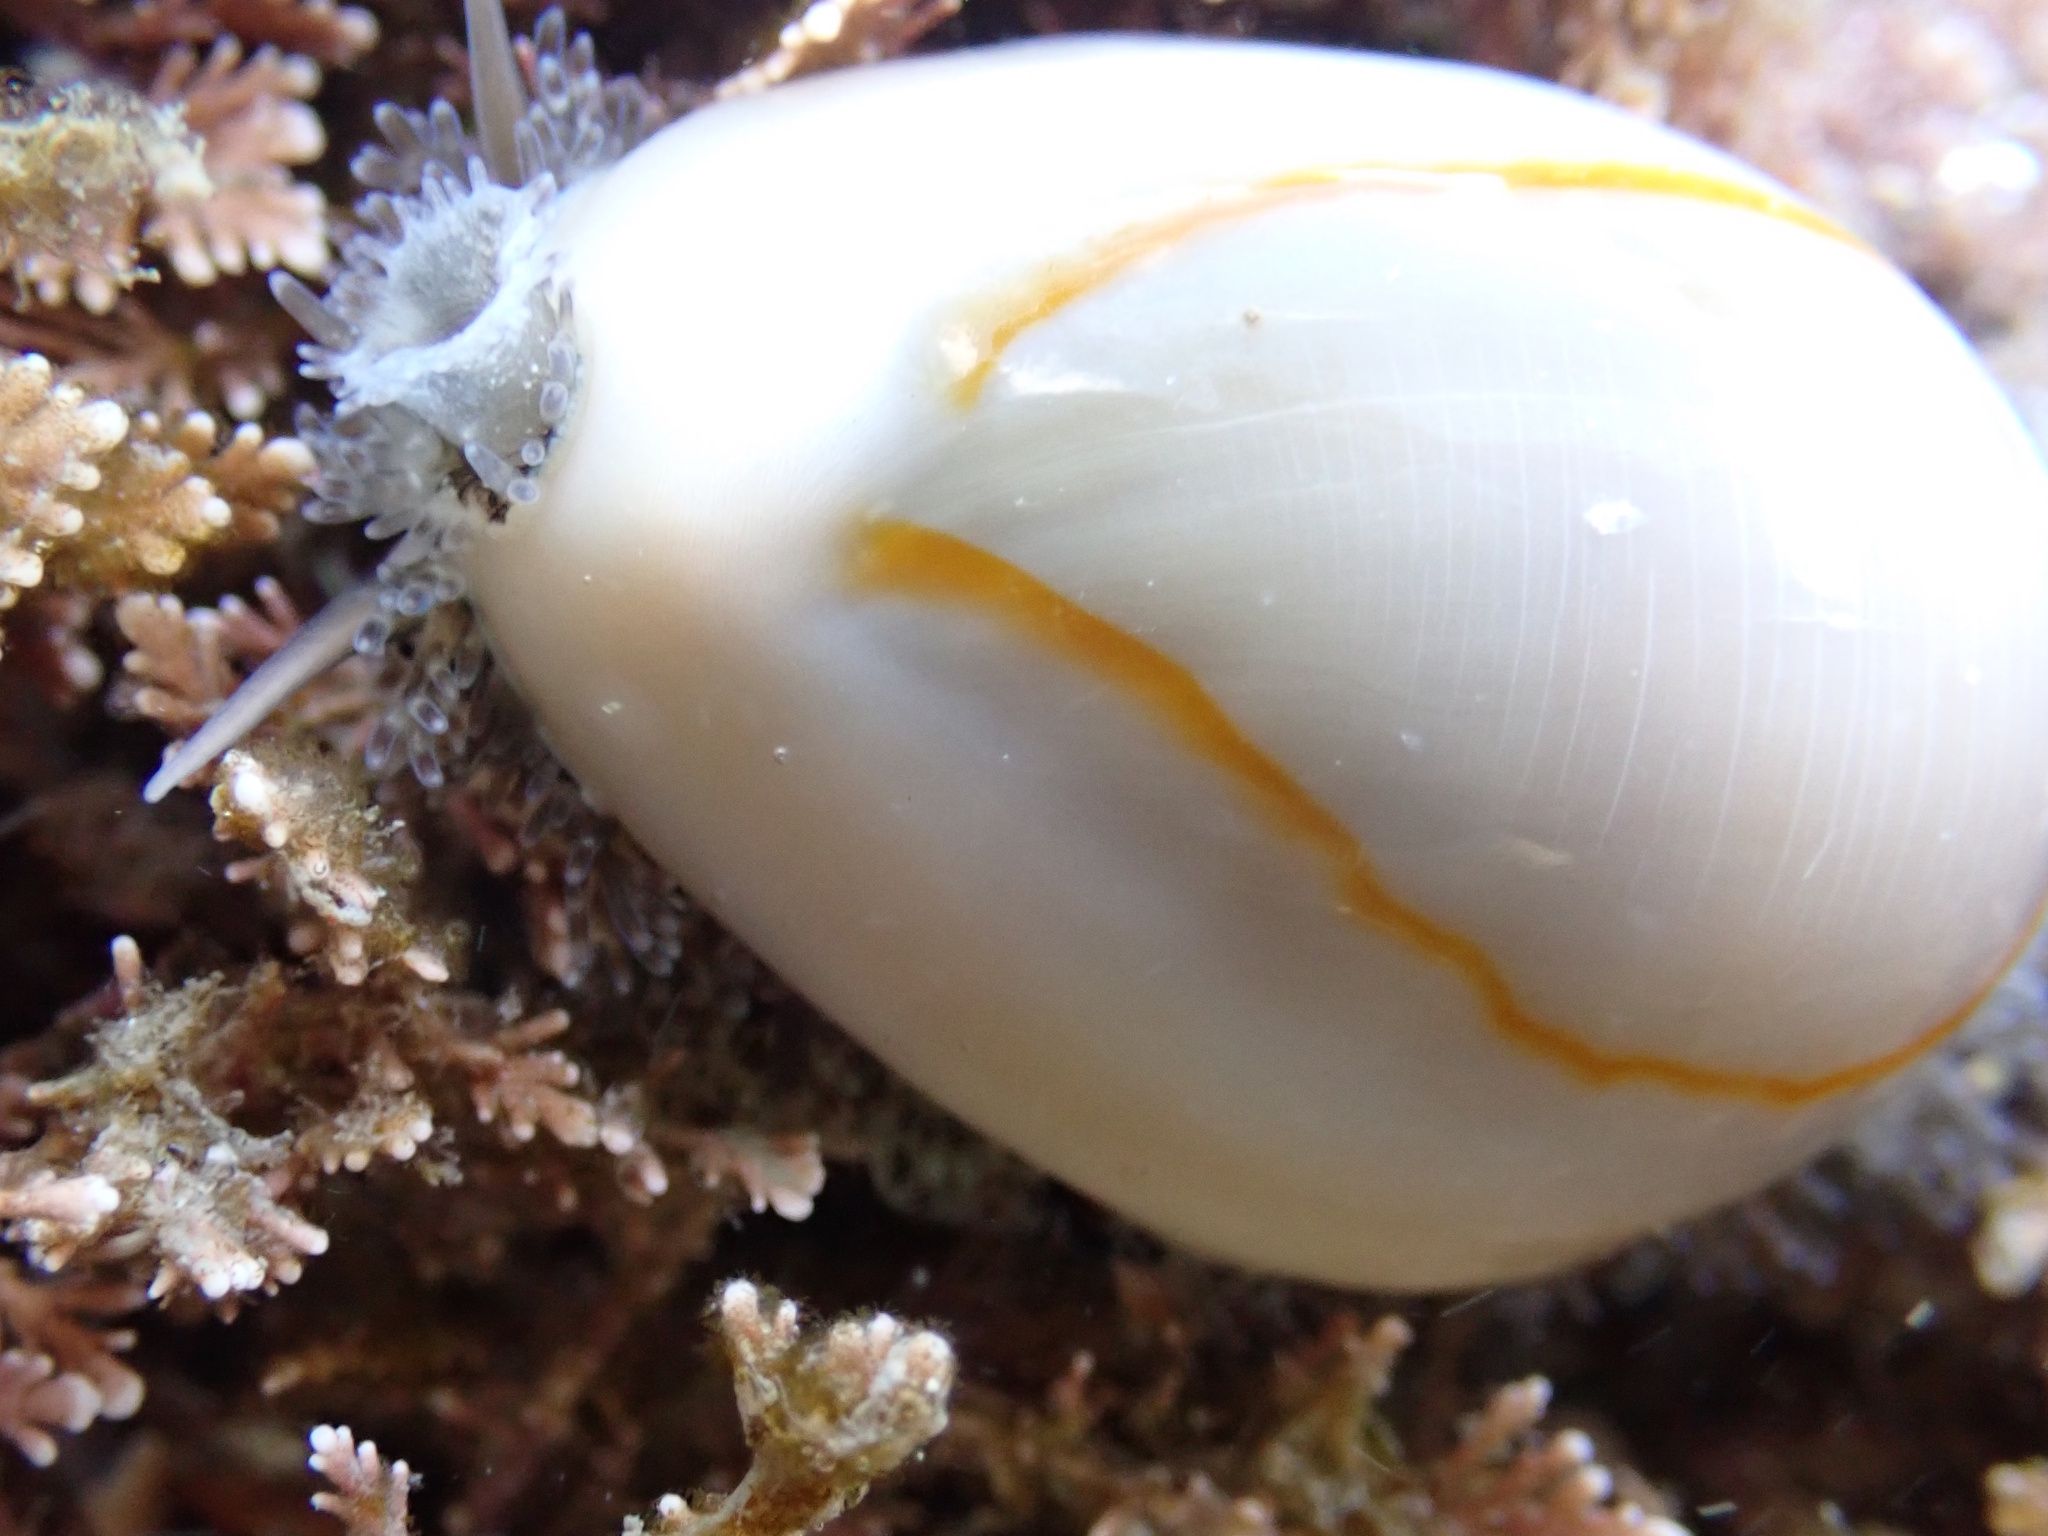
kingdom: Animalia
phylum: Mollusca
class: Gastropoda
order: Littorinimorpha
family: Cypraeidae
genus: Monetaria
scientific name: Monetaria annulus
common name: Ring cowrie
